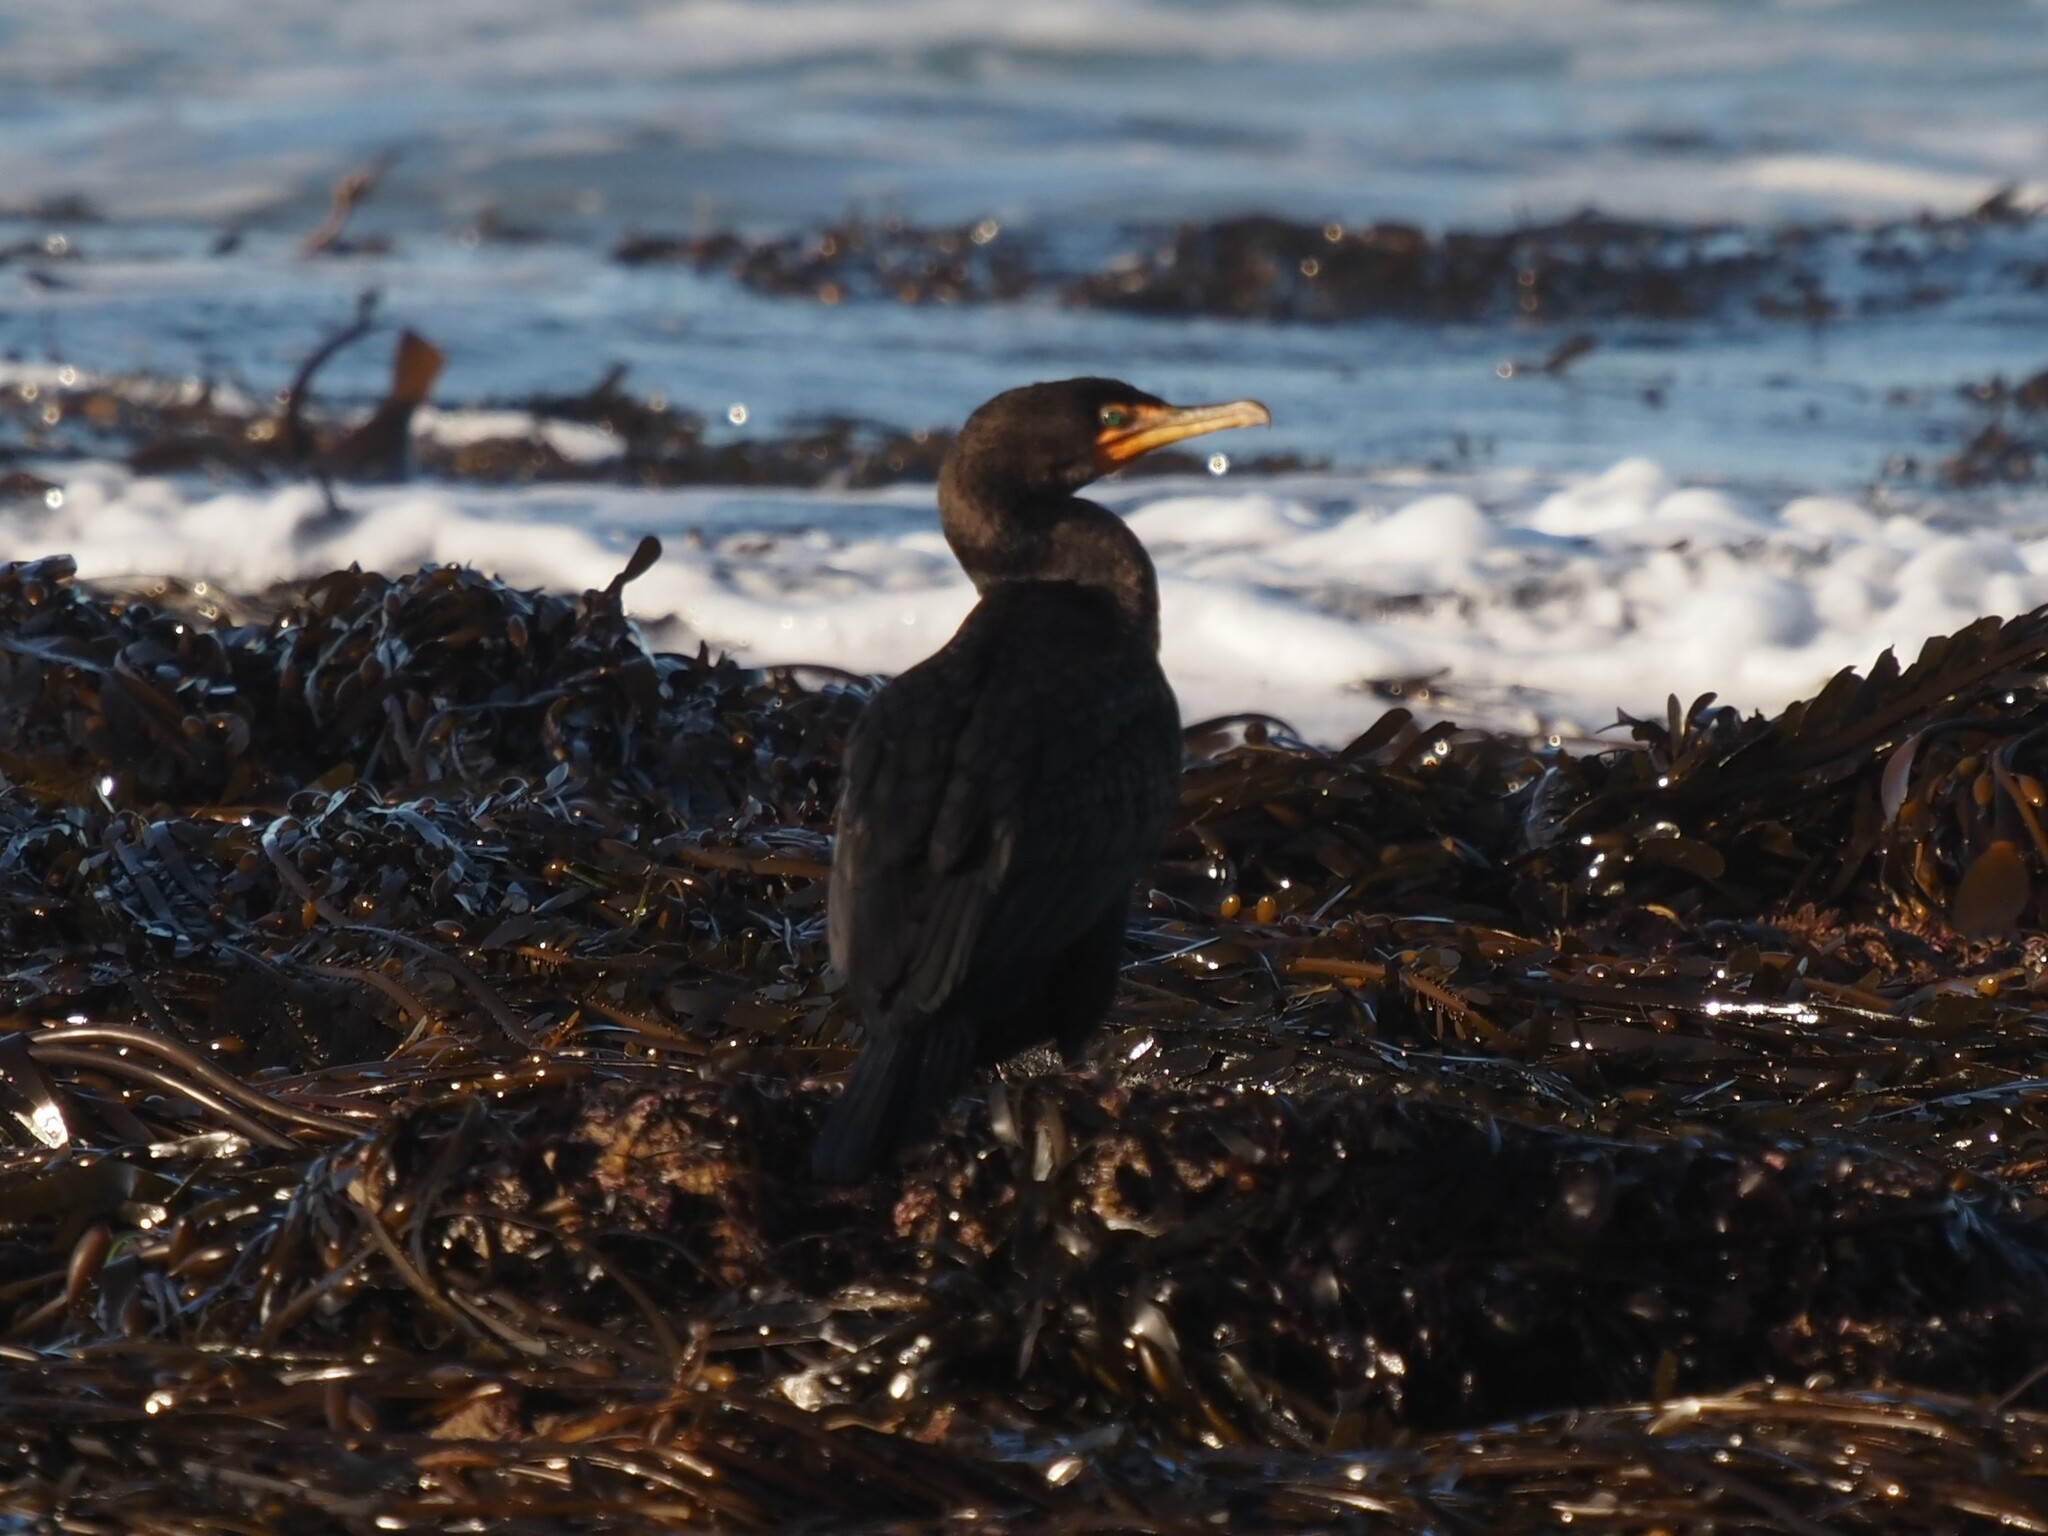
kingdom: Animalia
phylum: Chordata
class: Aves
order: Suliformes
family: Phalacrocoracidae
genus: Phalacrocorax
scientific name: Phalacrocorax auritus
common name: Double-crested cormorant
